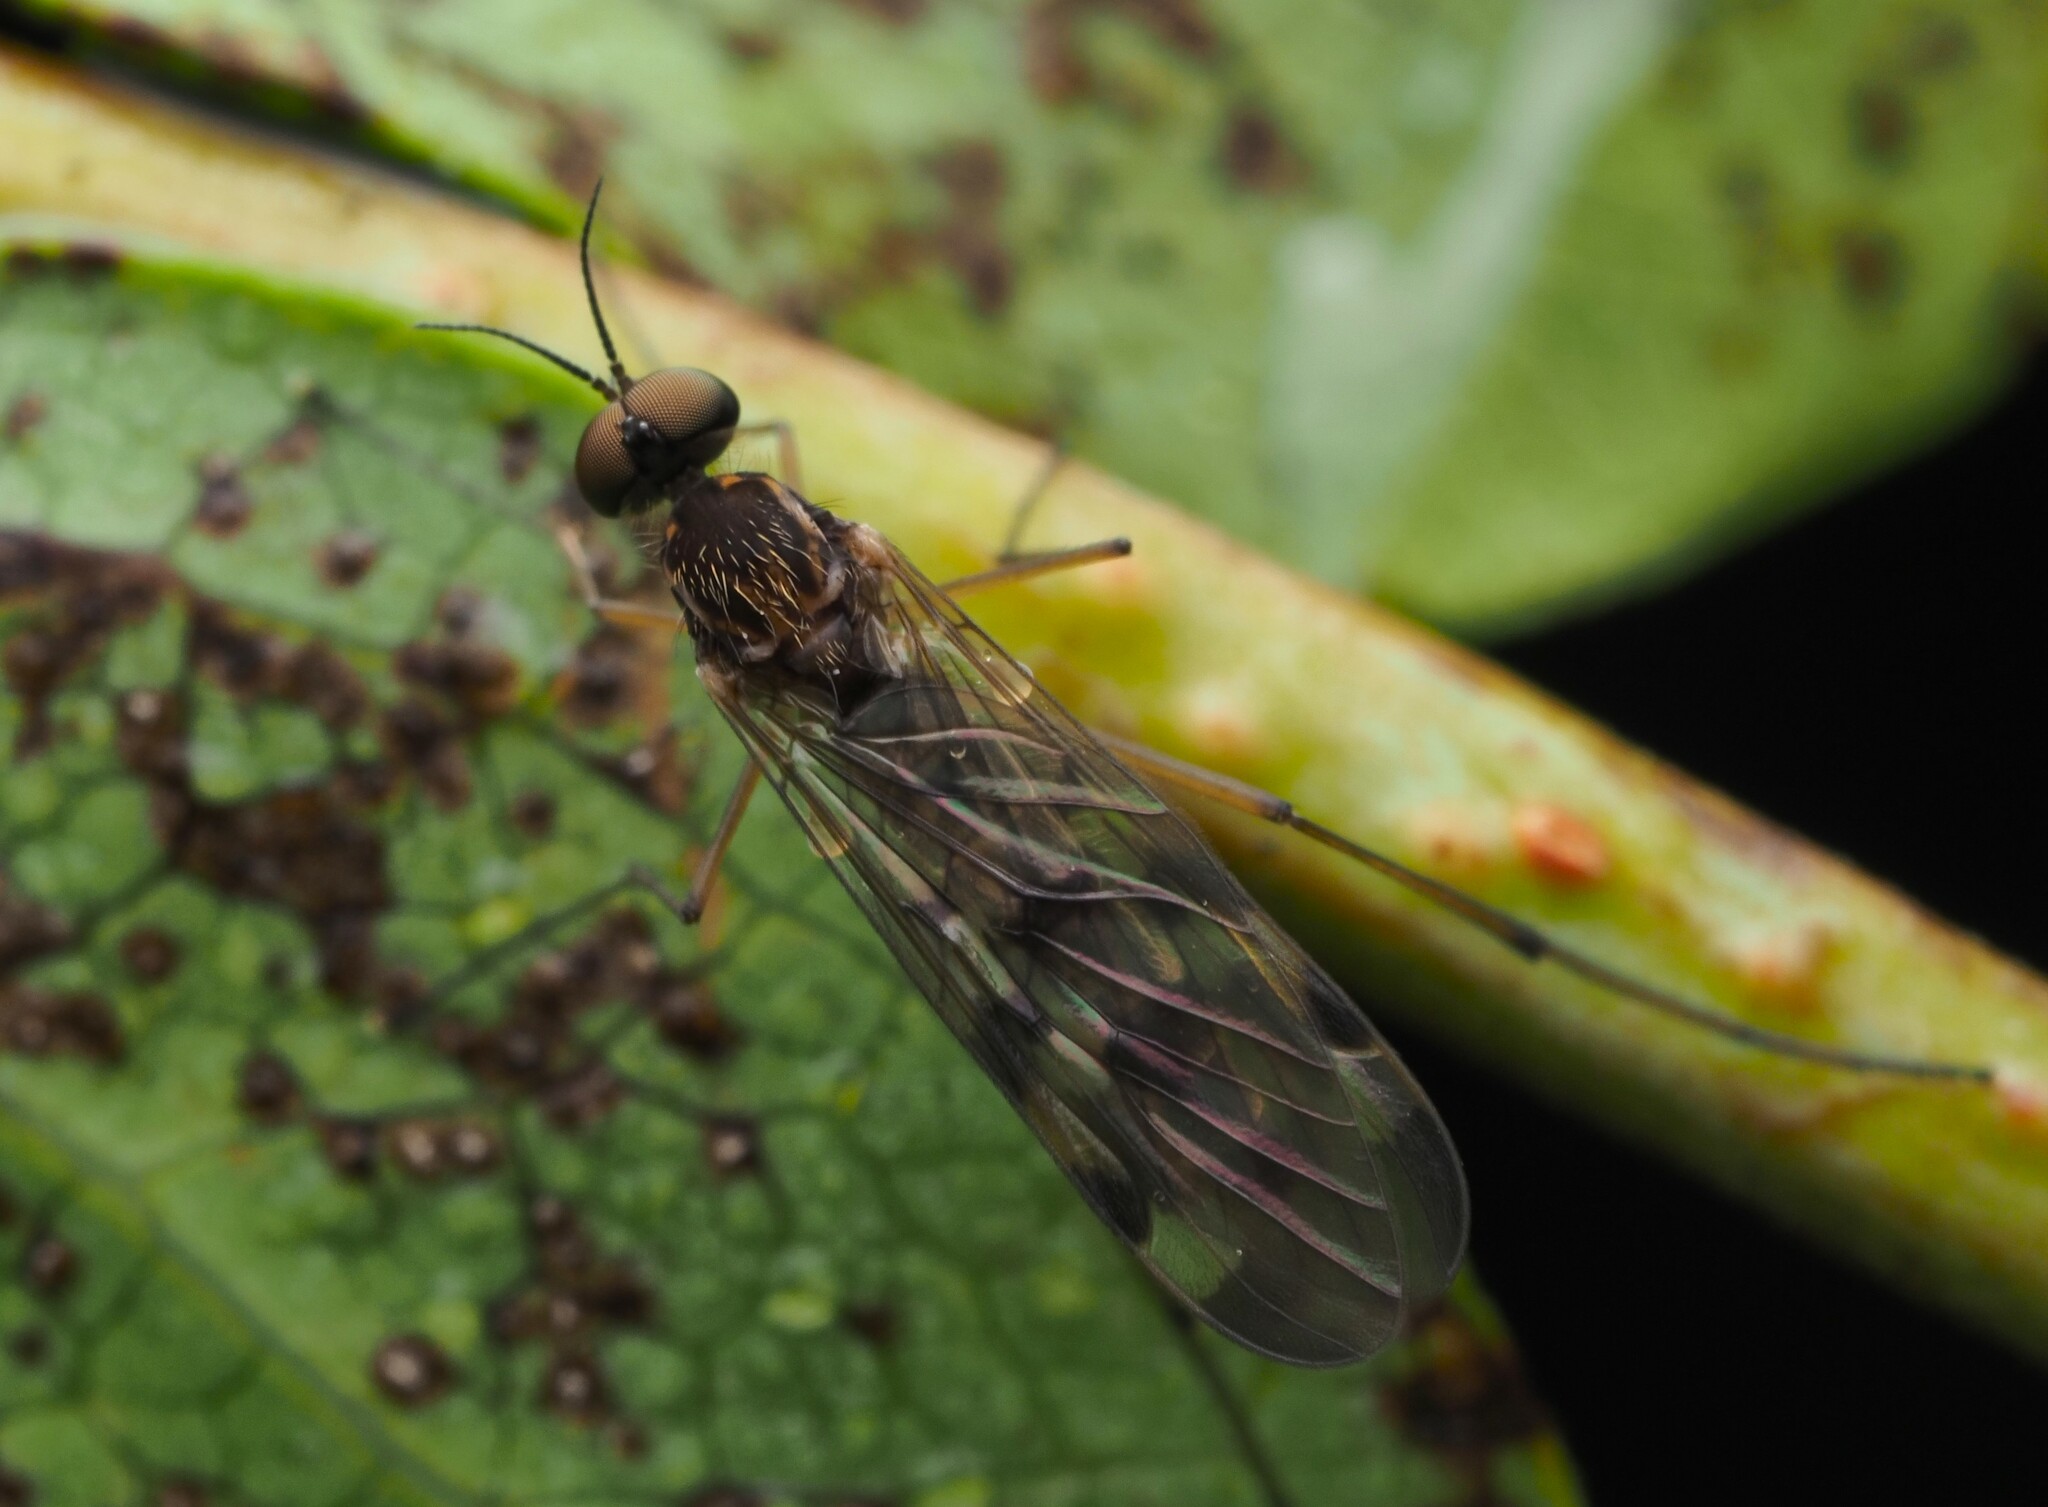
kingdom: Animalia
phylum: Arthropoda
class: Insecta
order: Diptera
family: Anisopodidae
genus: Sylvicola
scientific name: Sylvicola undulatus
